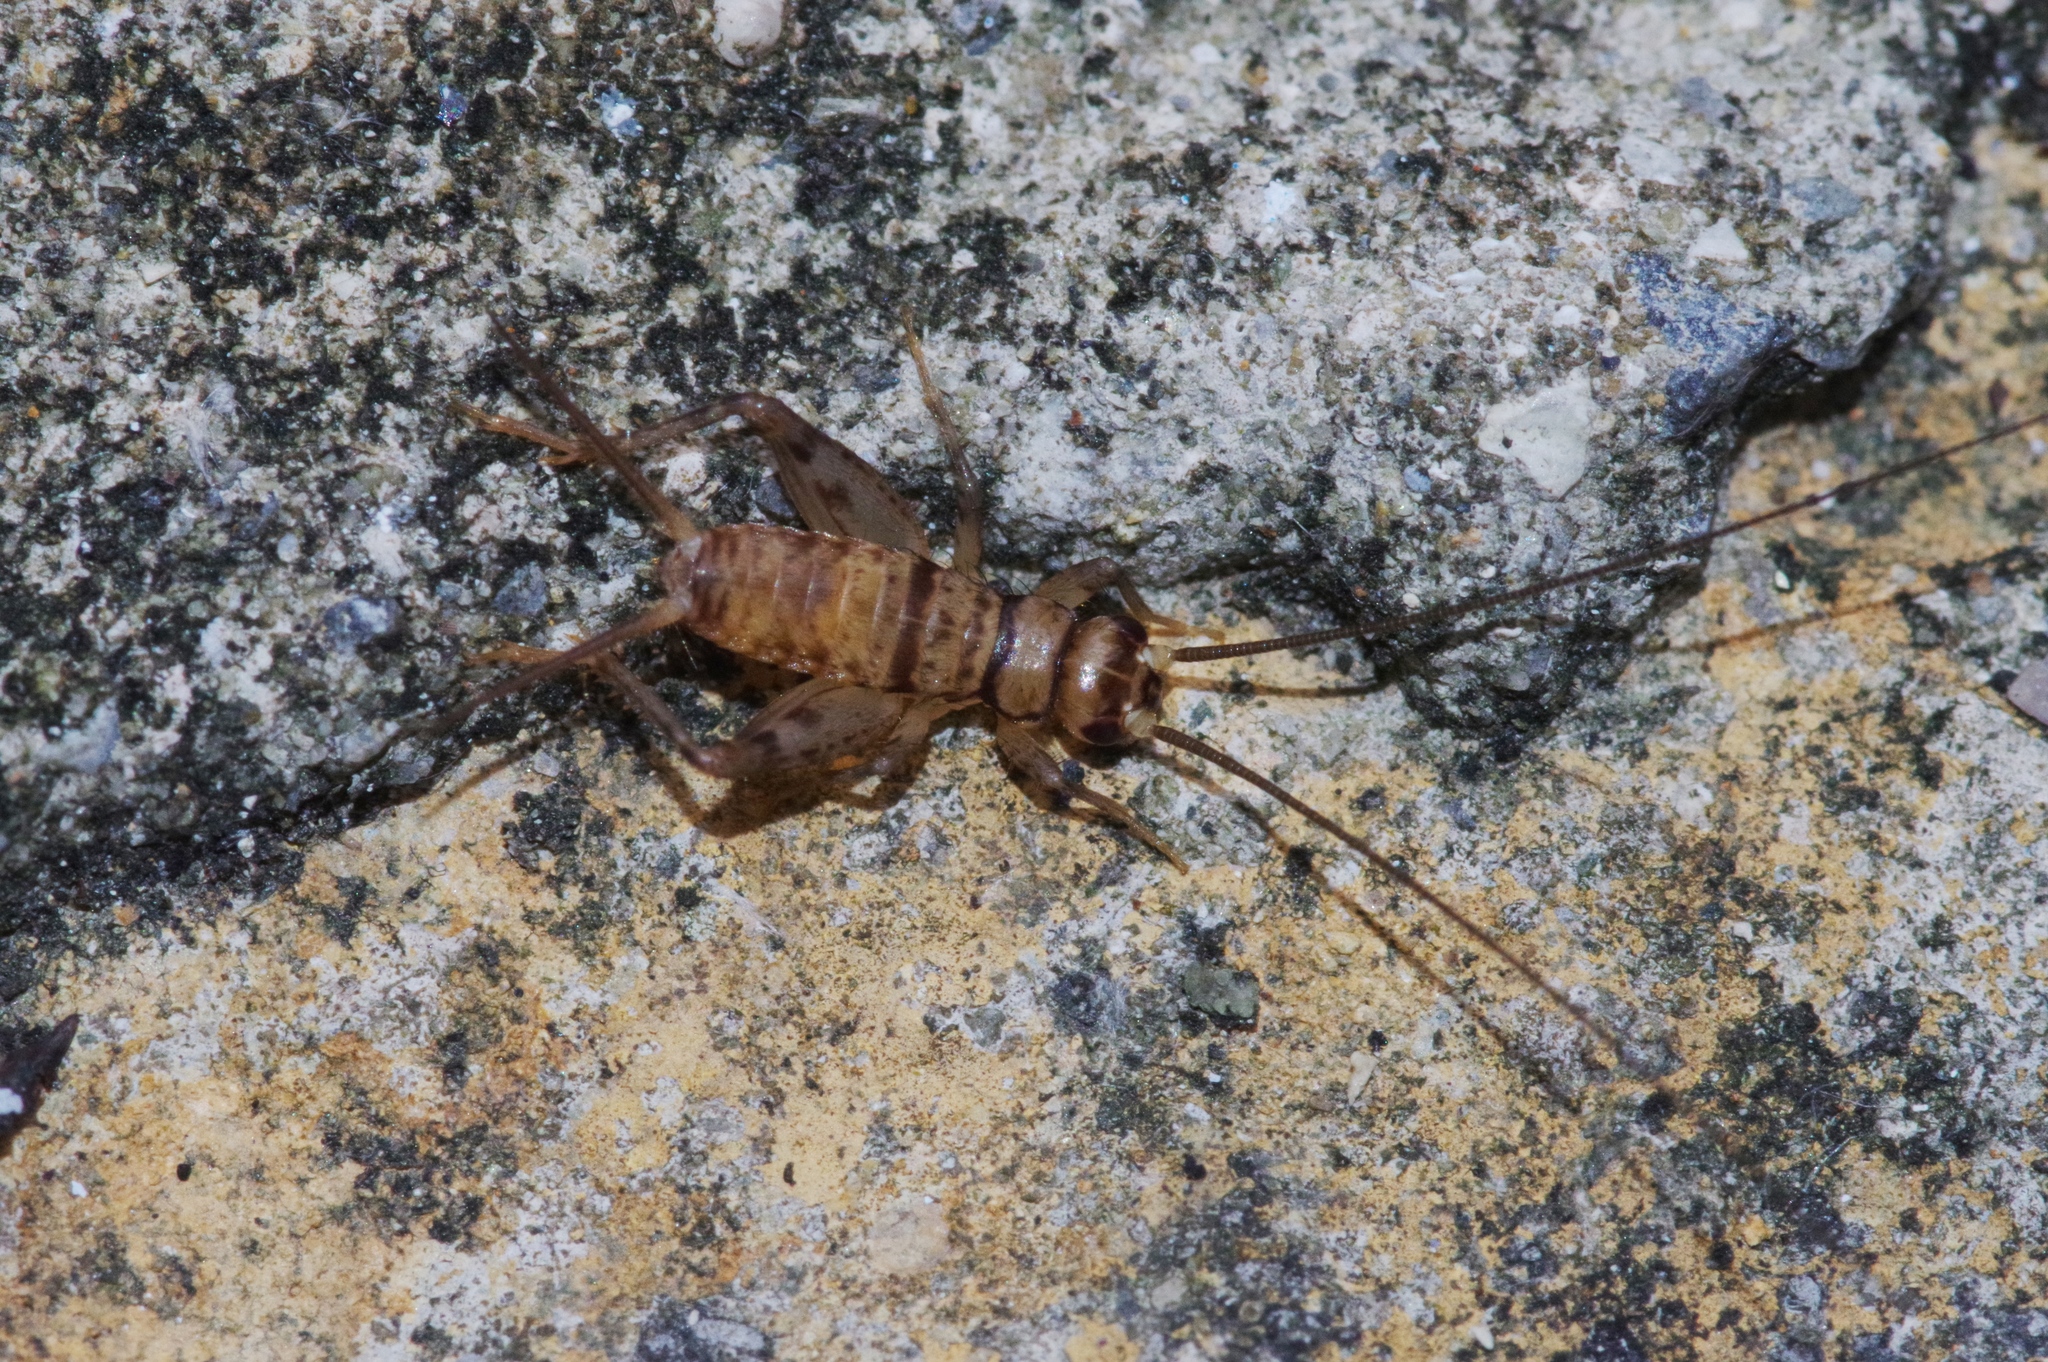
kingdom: Animalia
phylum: Arthropoda
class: Insecta
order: Orthoptera
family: Gryllidae
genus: Gryllodes
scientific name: Gryllodes sigillatus
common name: Tropical house cricket
